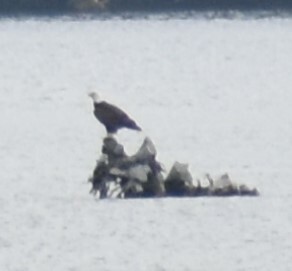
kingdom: Animalia
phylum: Chordata
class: Aves
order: Accipitriformes
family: Accipitridae
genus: Haliaeetus
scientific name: Haliaeetus leucocephalus
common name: Bald eagle
